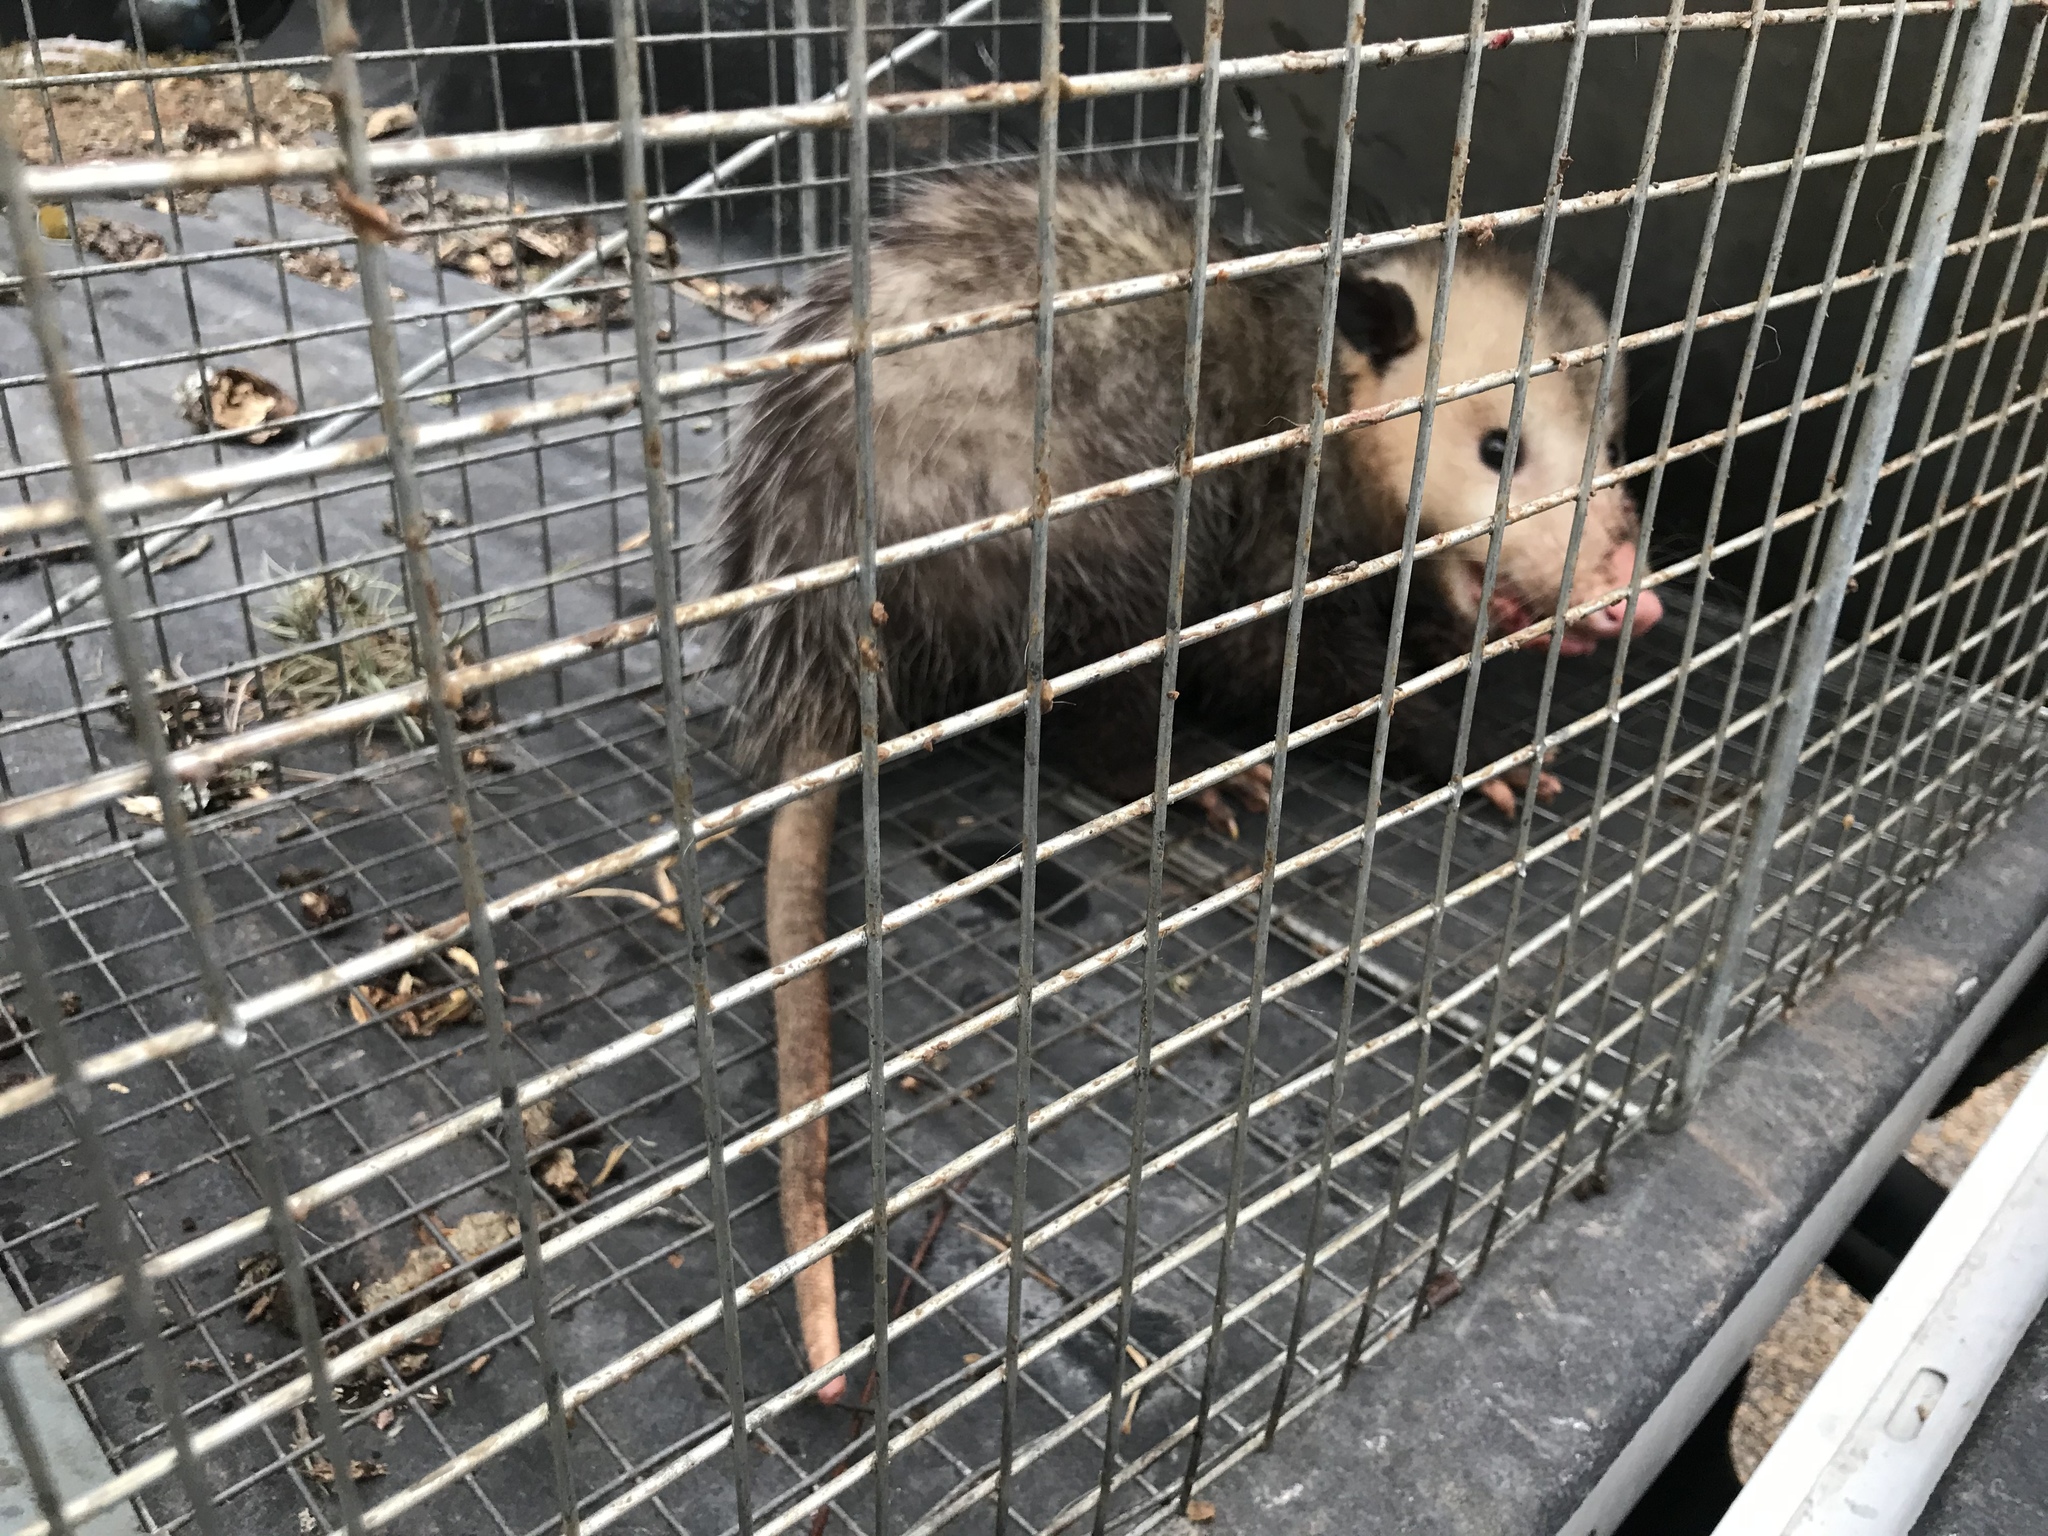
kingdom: Animalia
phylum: Chordata
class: Mammalia
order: Didelphimorphia
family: Didelphidae
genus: Didelphis
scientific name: Didelphis virginiana
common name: Virginia opossum
